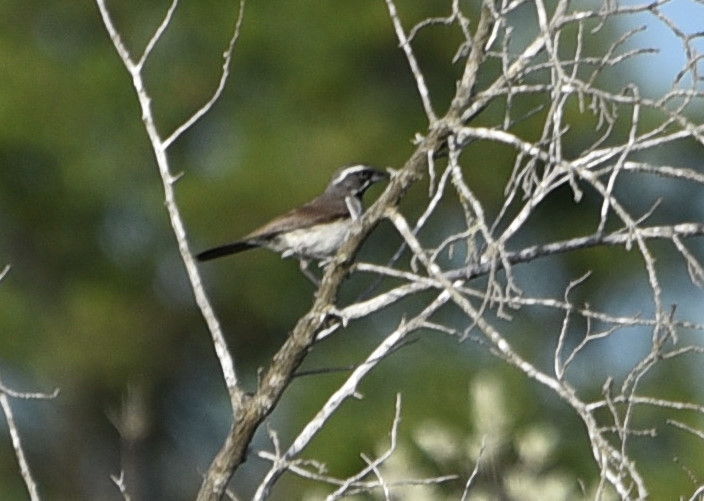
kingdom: Animalia
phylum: Chordata
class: Aves
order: Passeriformes
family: Passerellidae
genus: Amphispiza
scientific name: Amphispiza bilineata
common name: Black-throated sparrow
